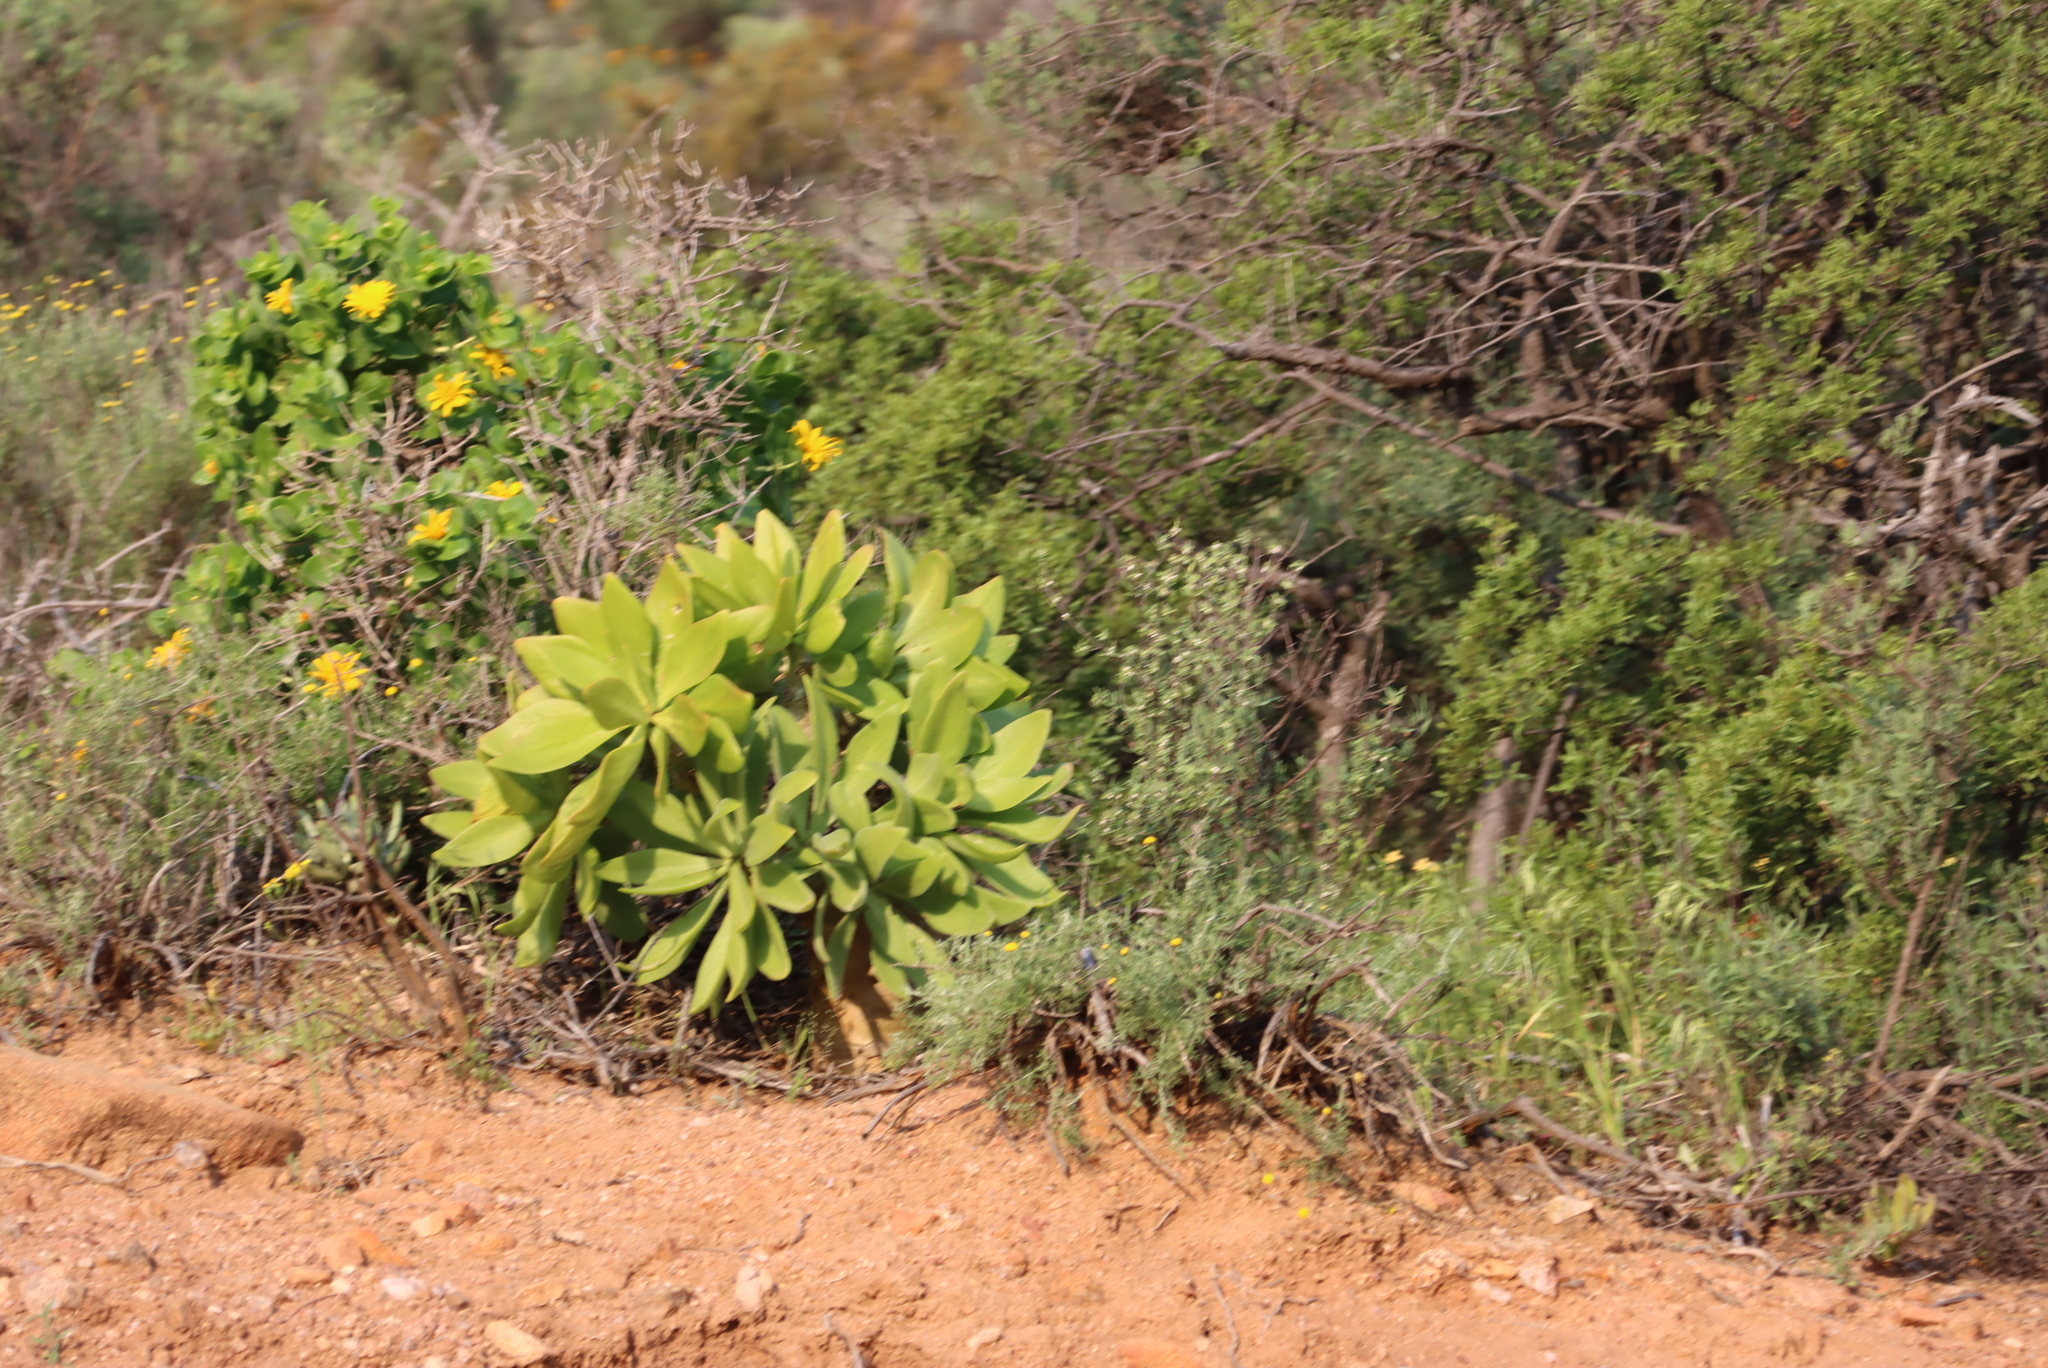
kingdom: Plantae
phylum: Tracheophyta
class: Magnoliopsida
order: Saxifragales
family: Crassulaceae
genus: Tylecodon
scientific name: Tylecodon paniculatus
